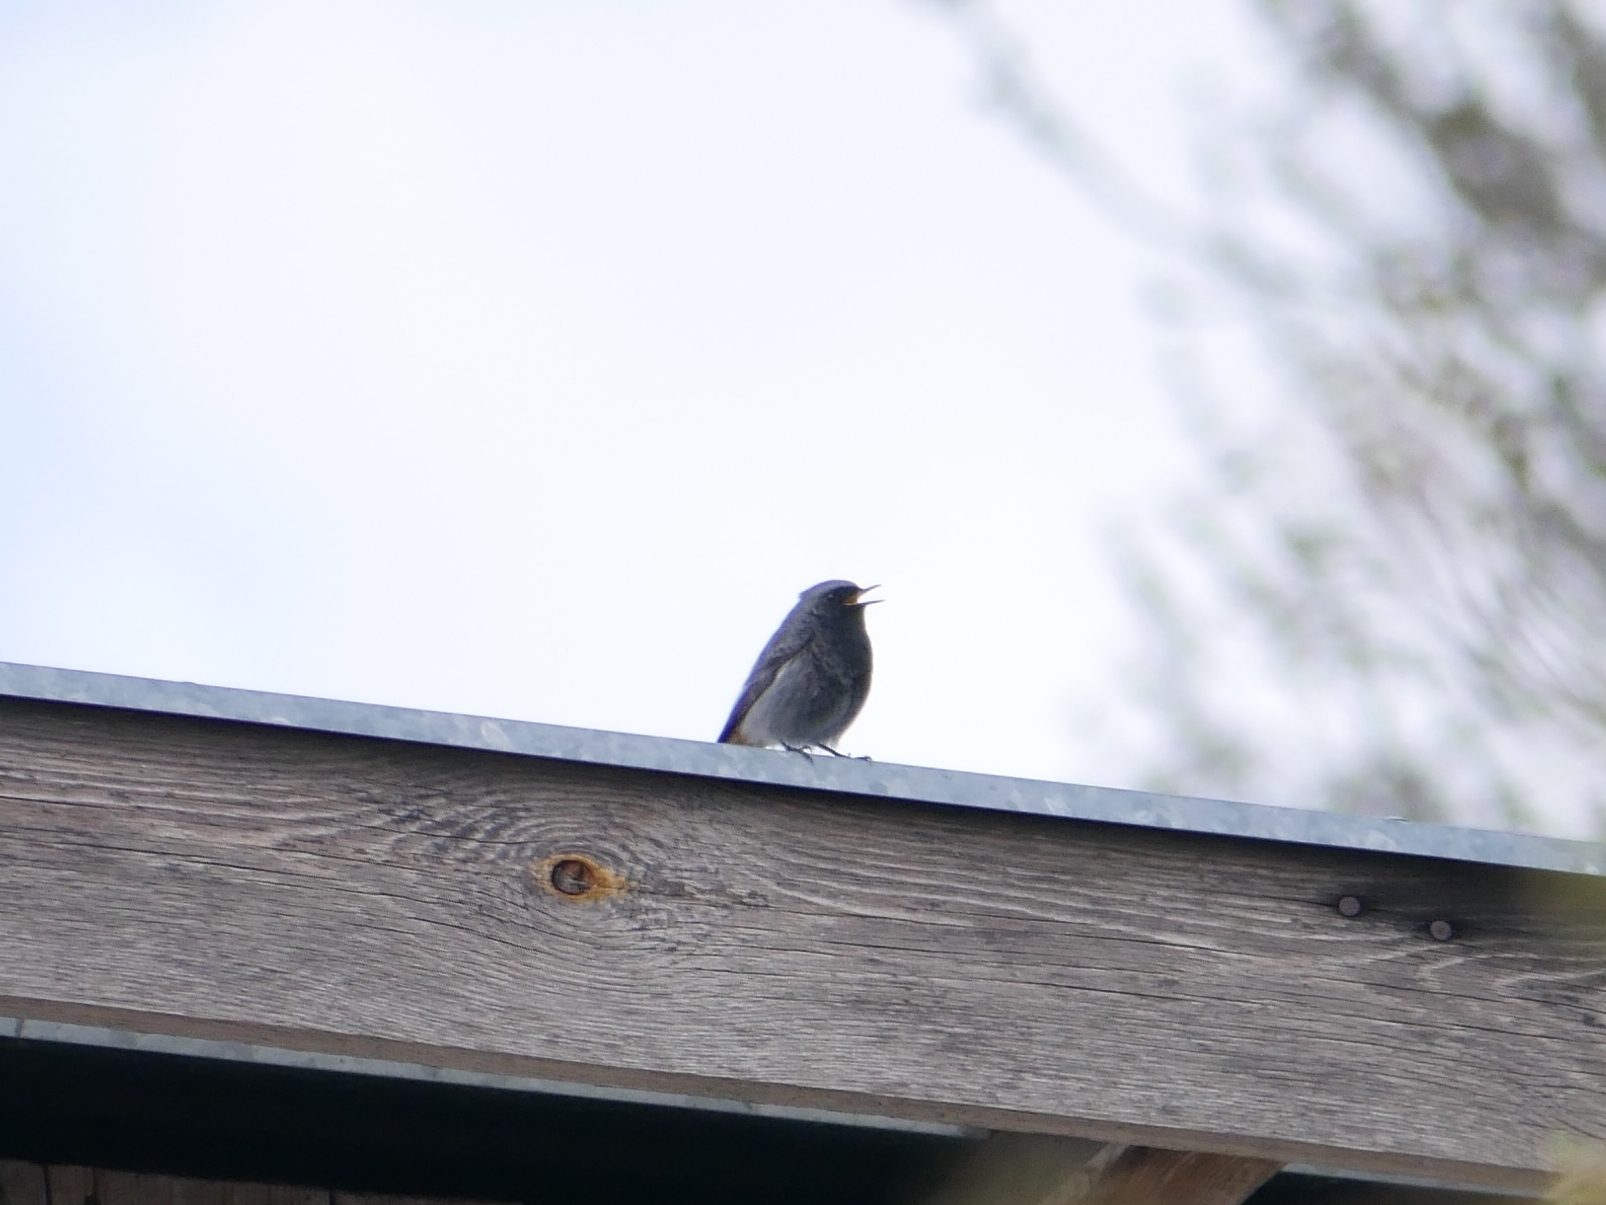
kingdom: Animalia
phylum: Chordata
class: Aves
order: Passeriformes
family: Muscicapidae
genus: Phoenicurus
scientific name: Phoenicurus ochruros
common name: Black redstart
